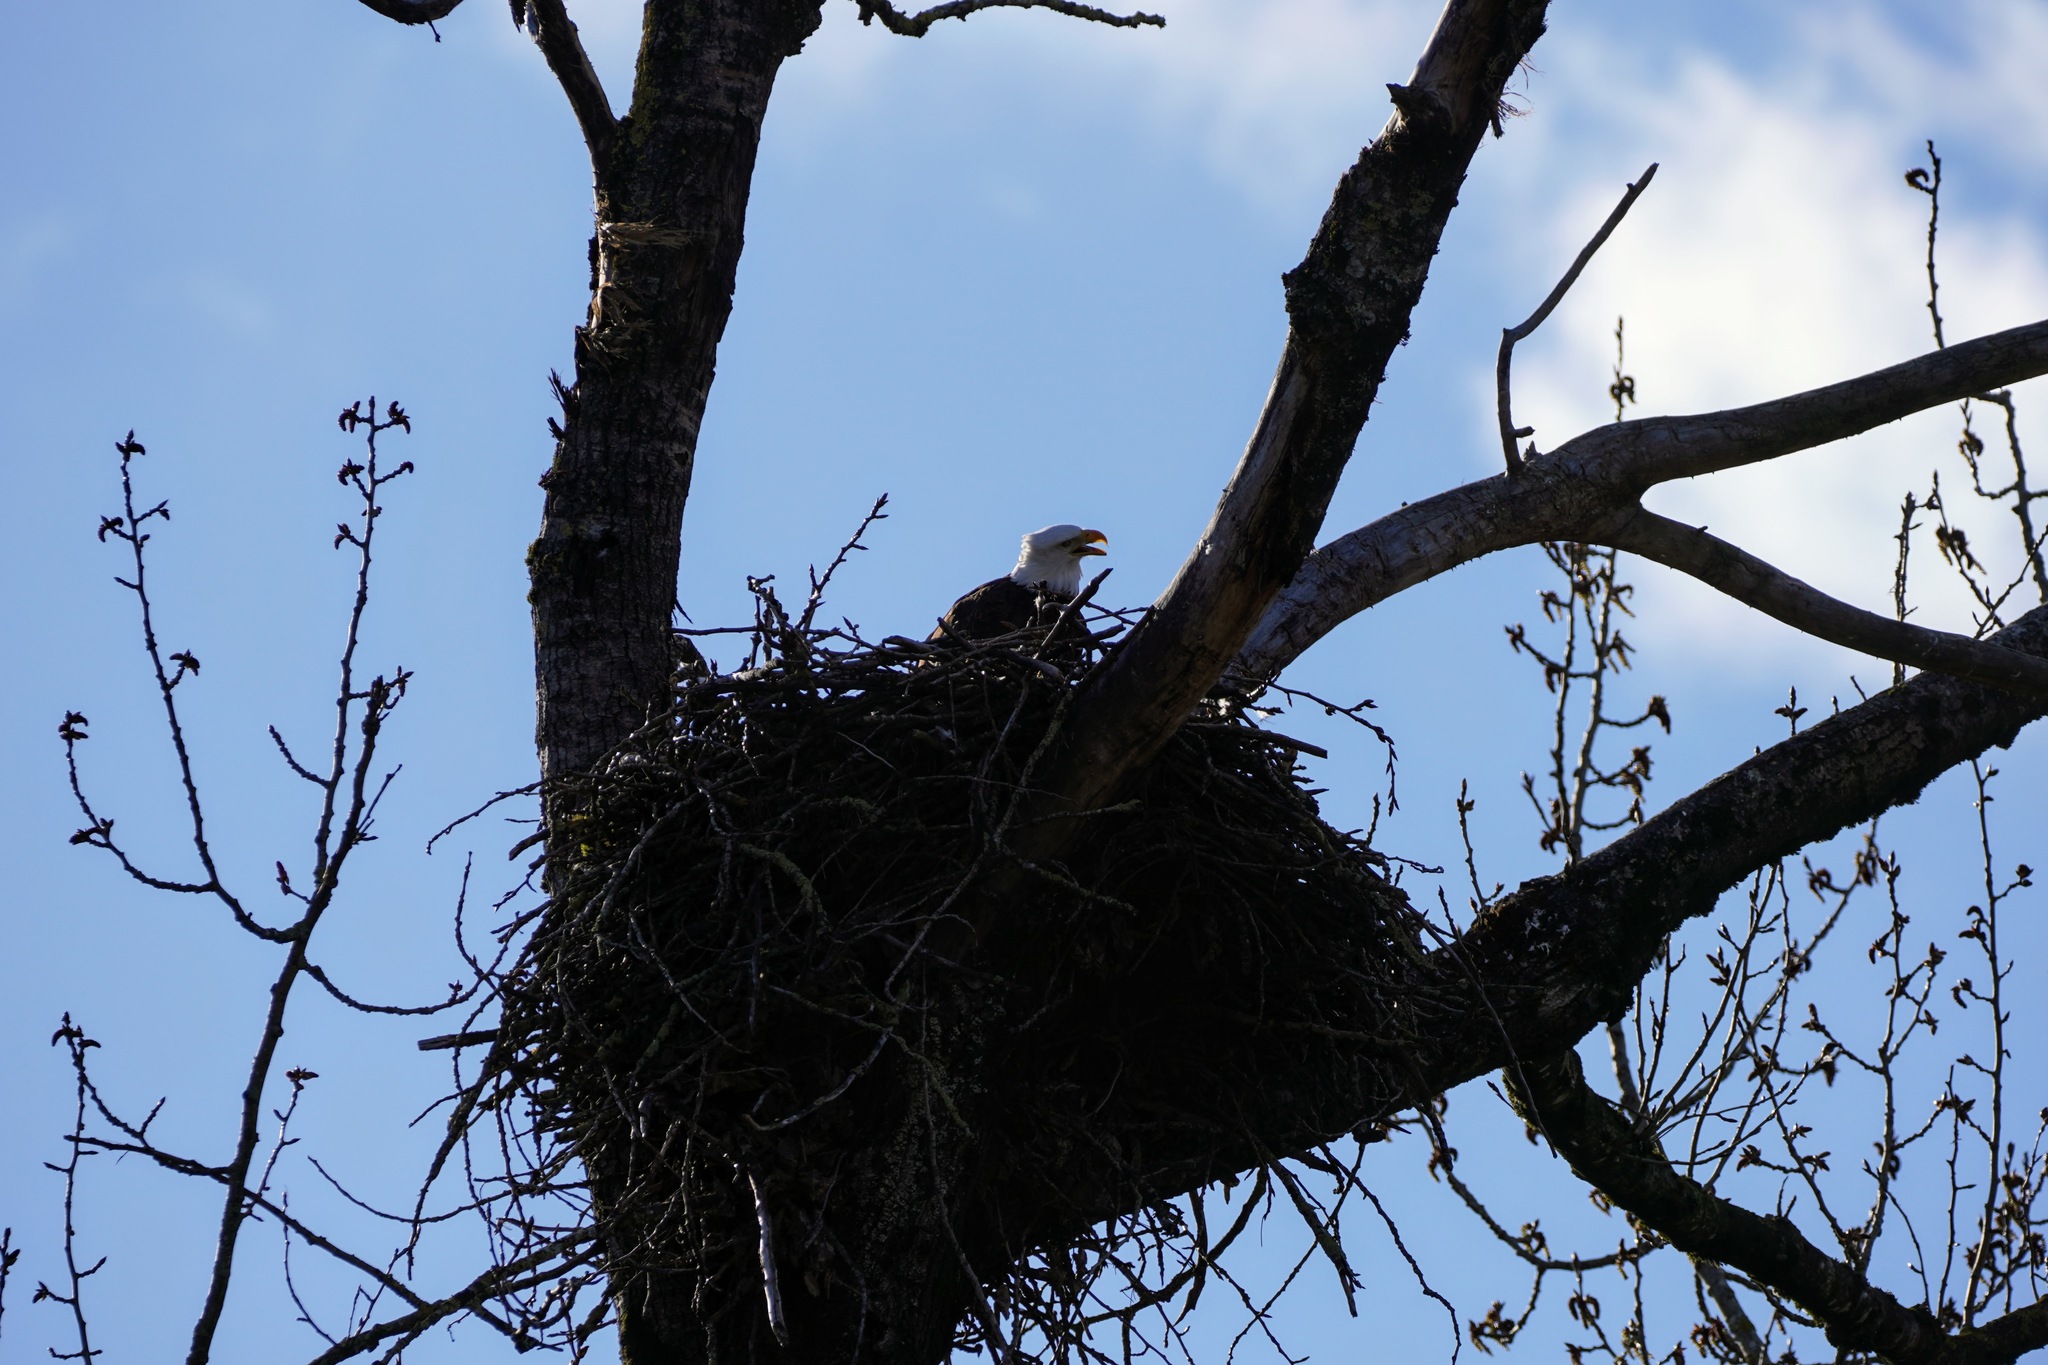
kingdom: Animalia
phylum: Chordata
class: Aves
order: Accipitriformes
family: Accipitridae
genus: Haliaeetus
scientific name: Haliaeetus leucocephalus
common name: Bald eagle
